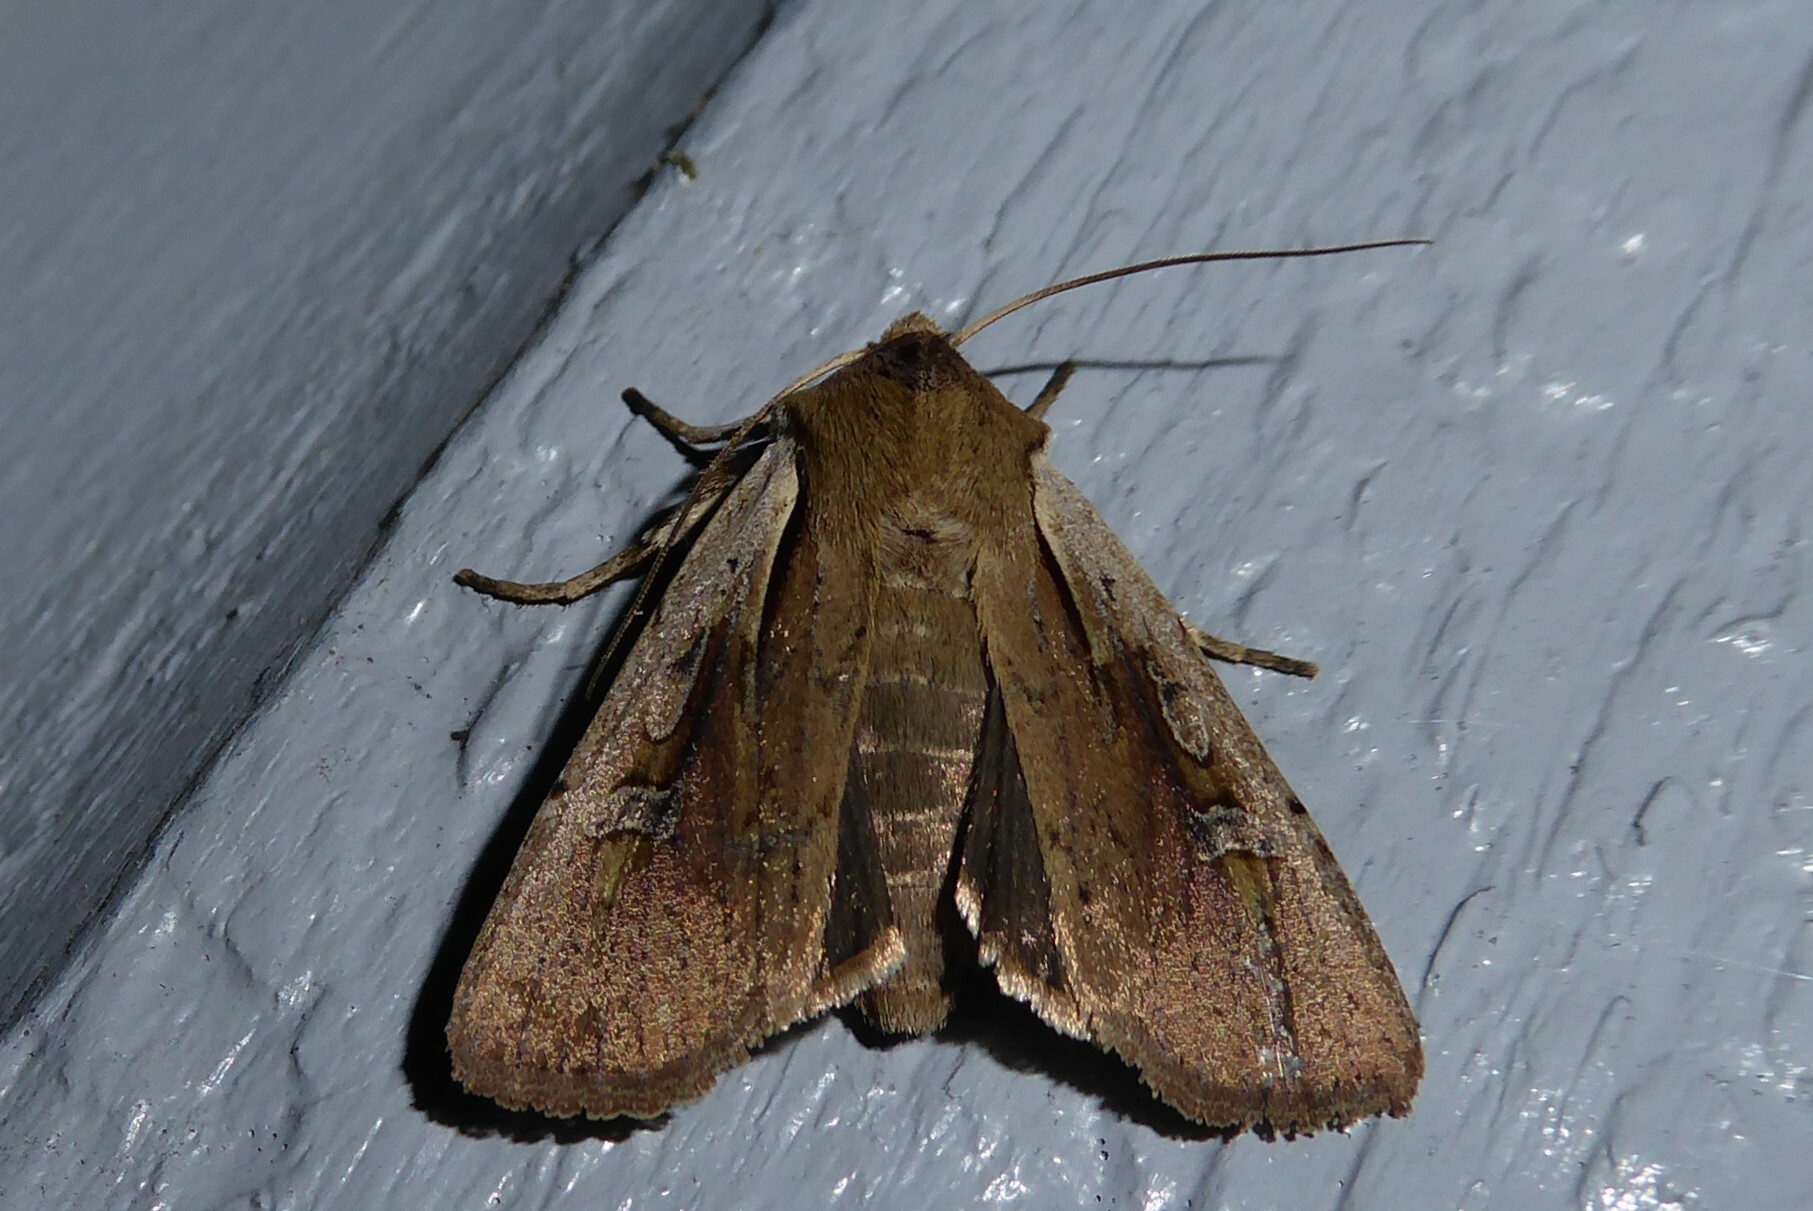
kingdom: Animalia
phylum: Arthropoda
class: Insecta
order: Lepidoptera
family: Noctuidae
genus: Ichneutica
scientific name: Ichneutica atristriga
